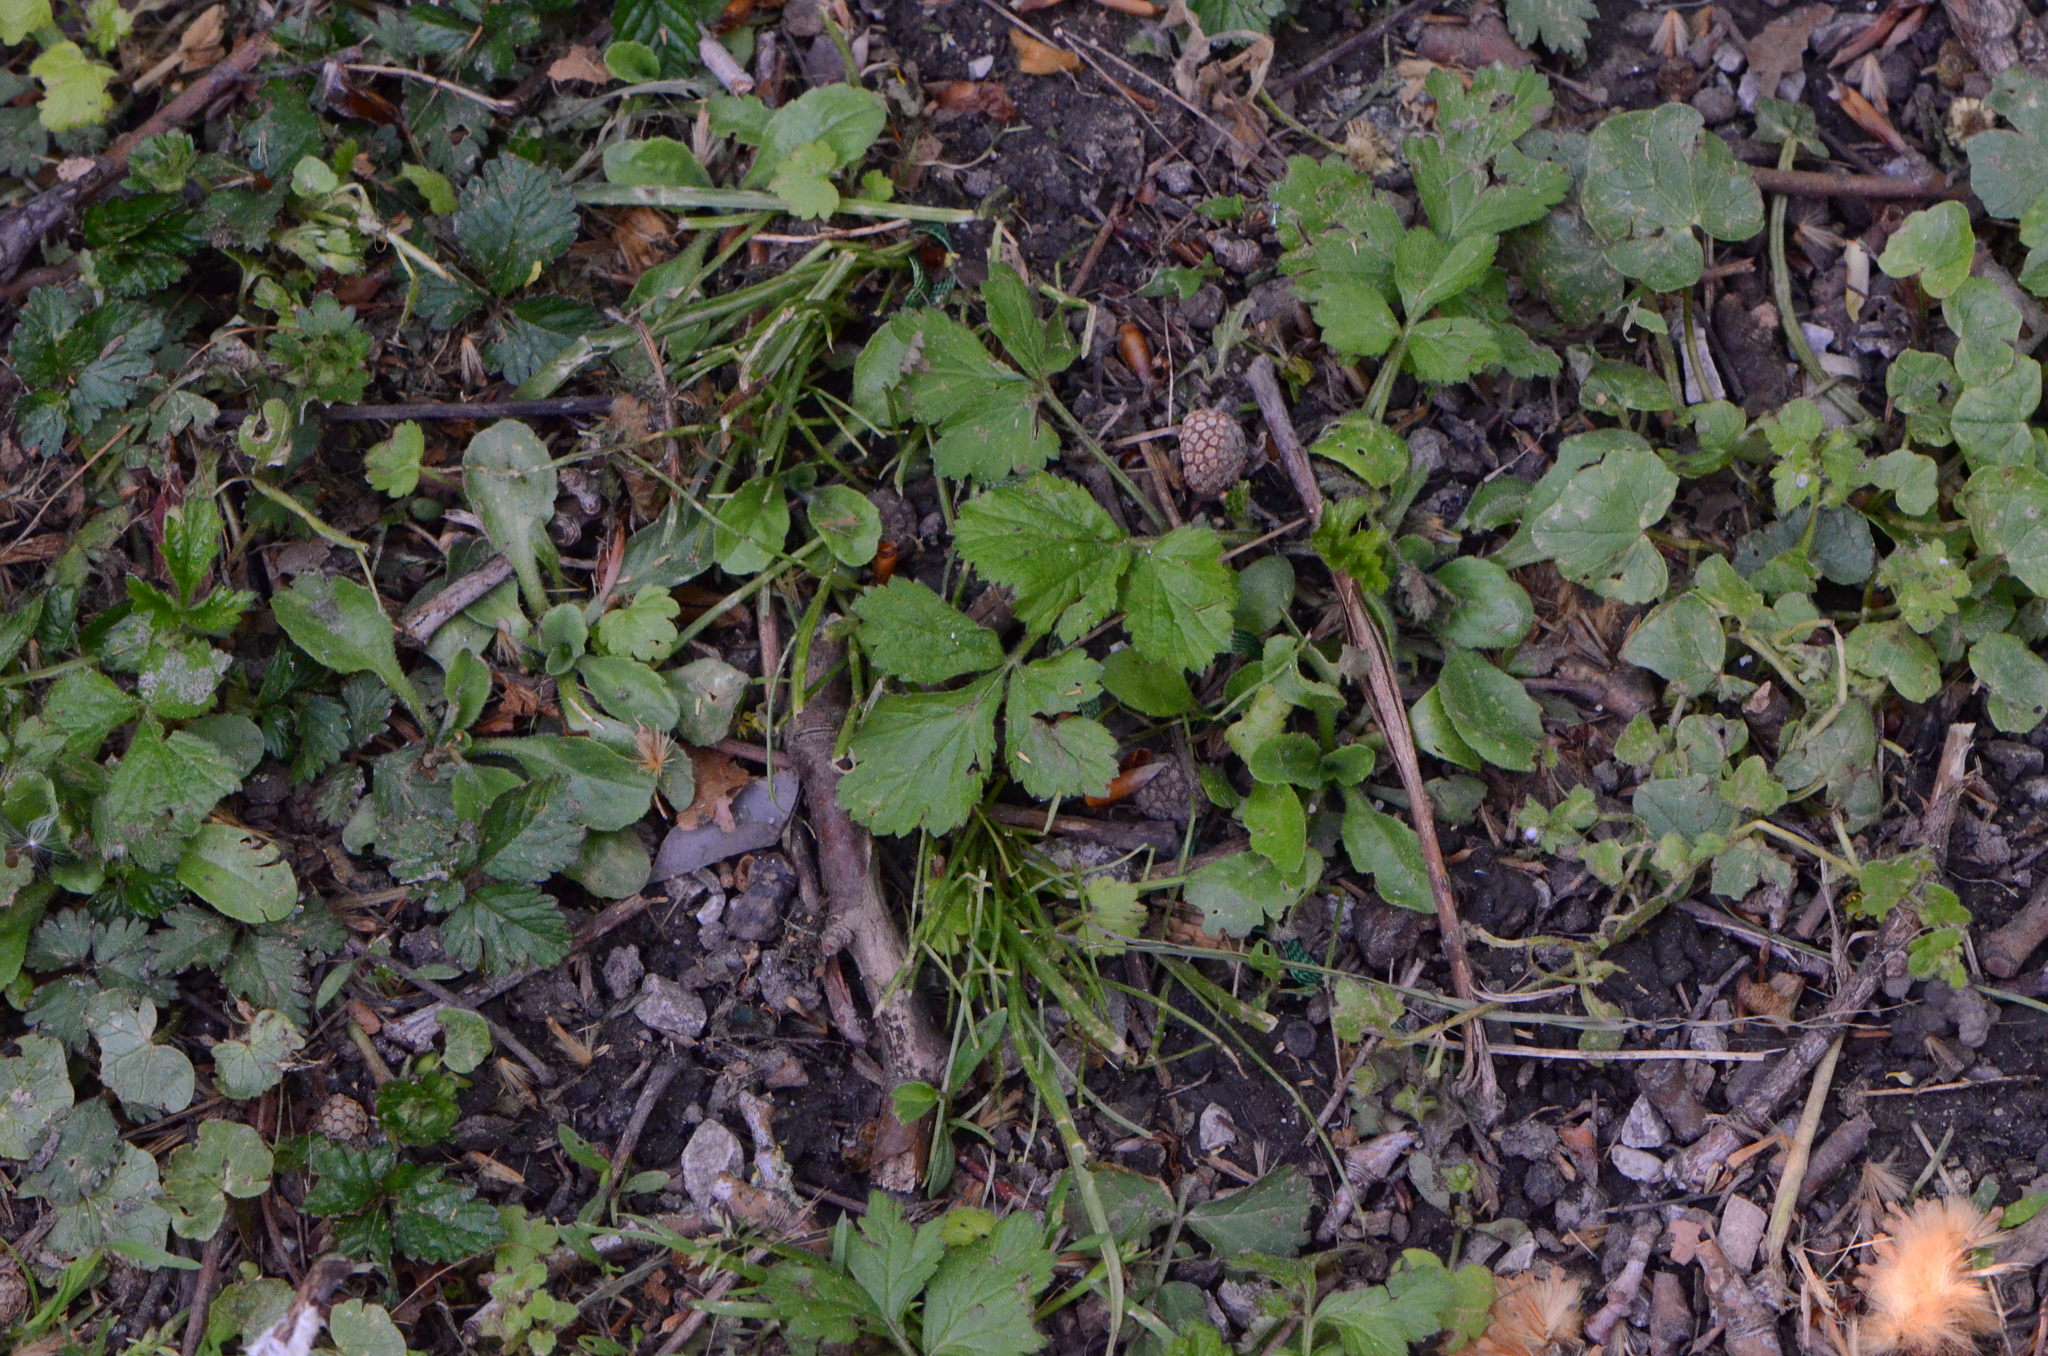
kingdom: Plantae
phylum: Tracheophyta
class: Magnoliopsida
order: Rosales
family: Rosaceae
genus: Geum
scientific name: Geum urbanum
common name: Wood avens
